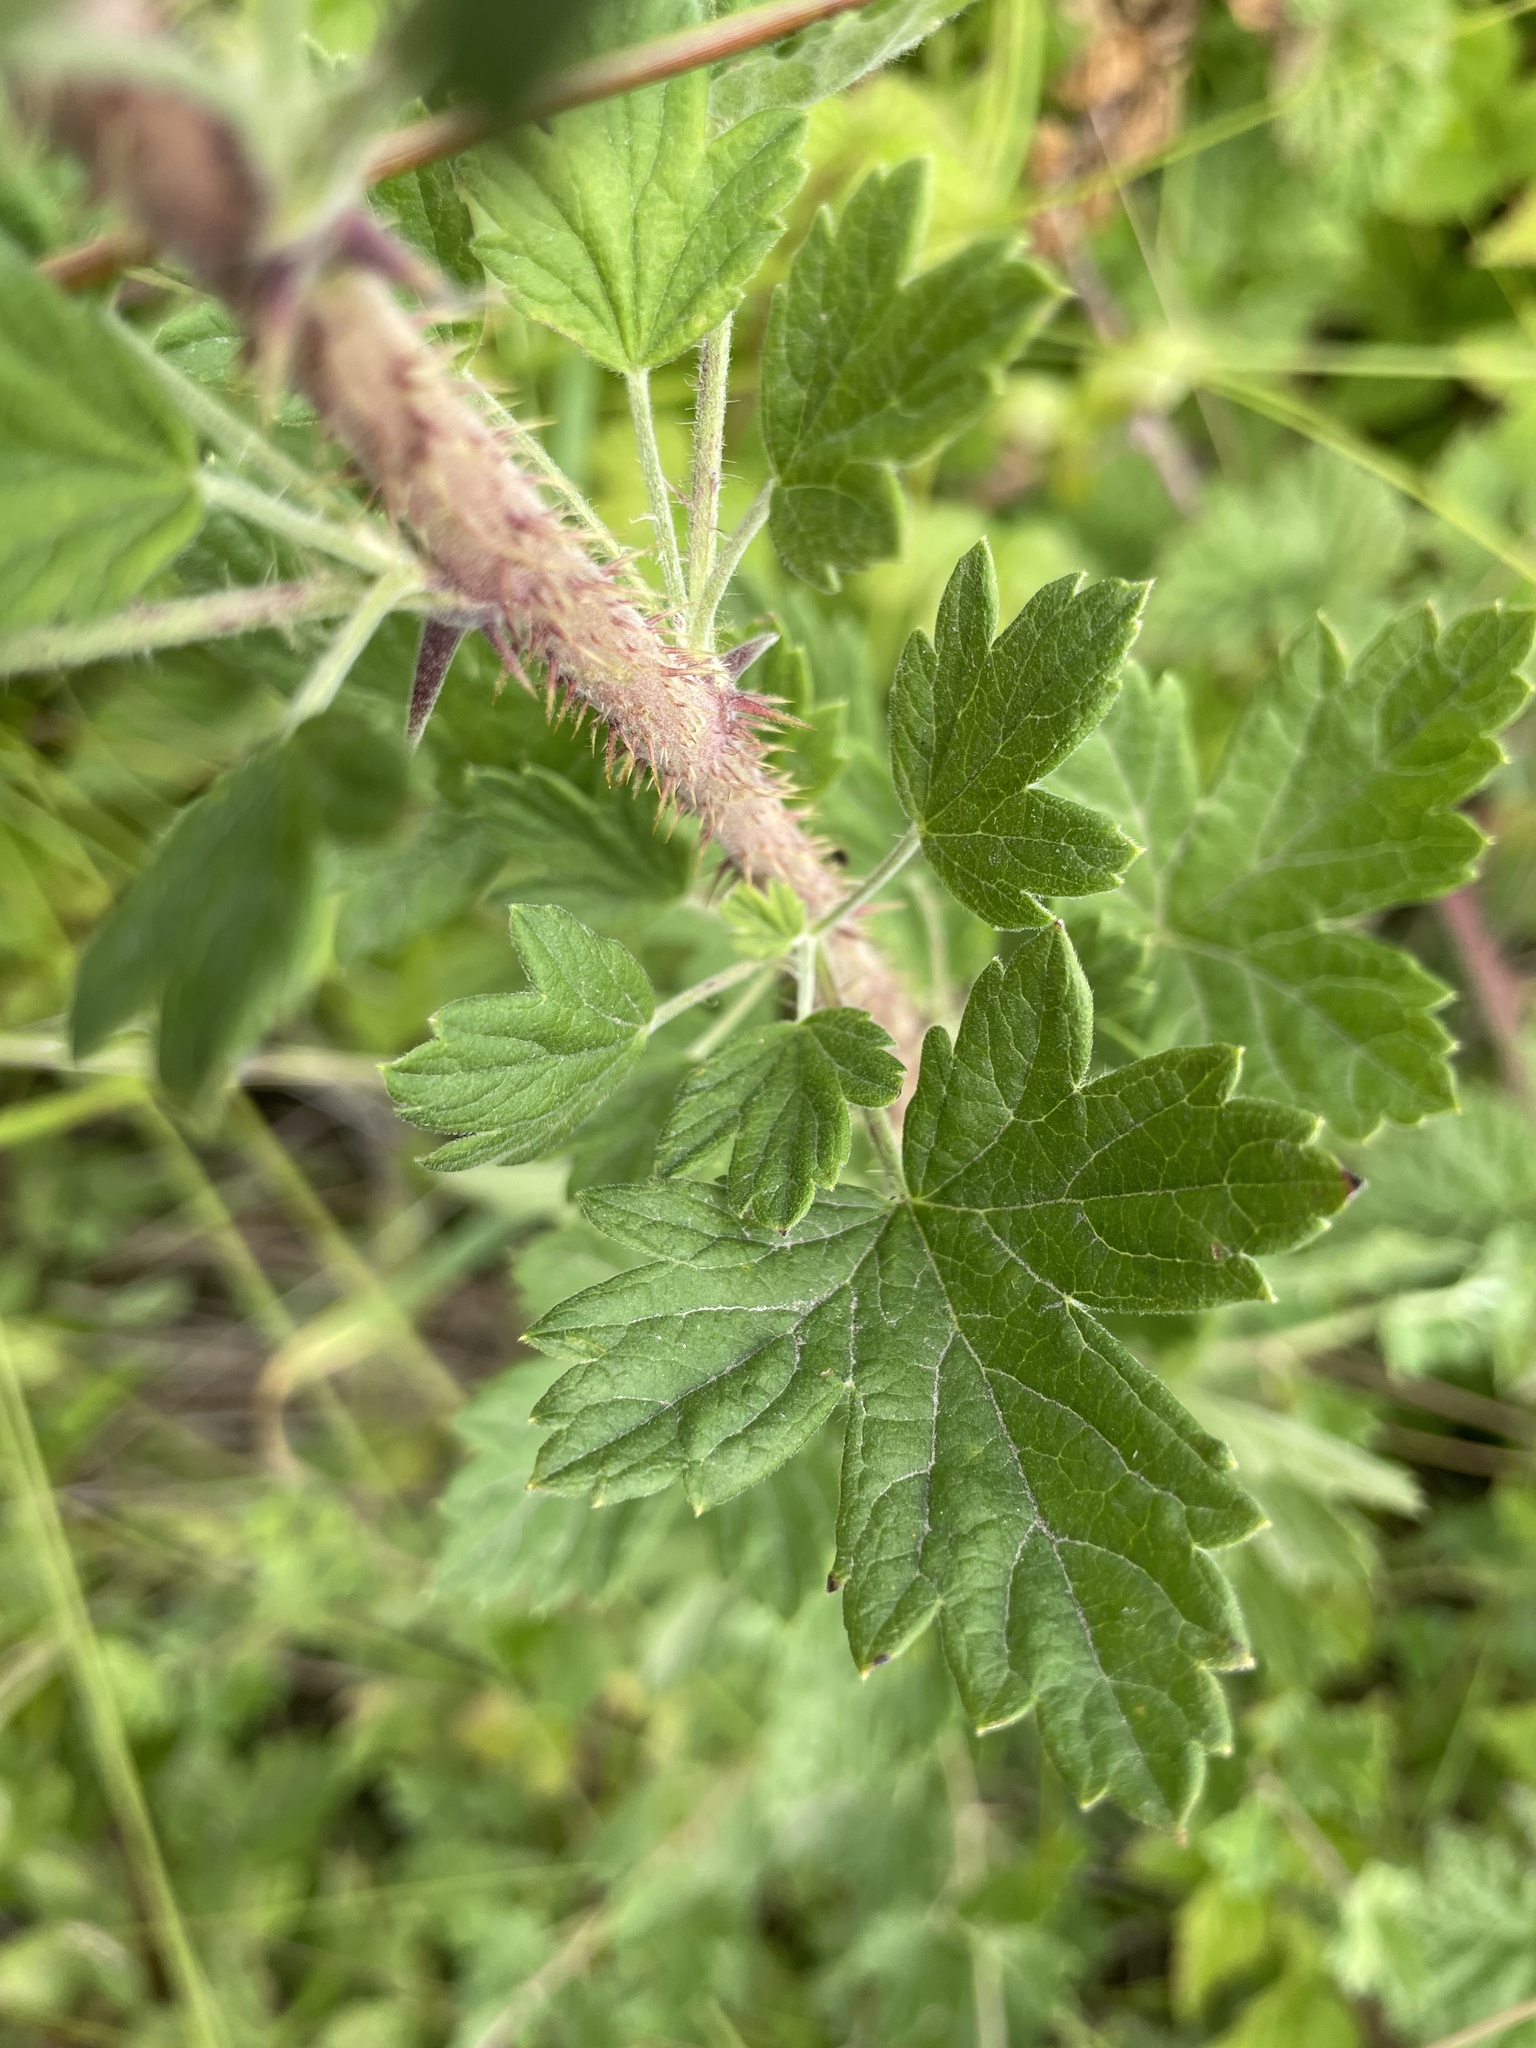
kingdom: Plantae
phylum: Tracheophyta
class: Magnoliopsida
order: Saxifragales
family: Grossulariaceae
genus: Ribes
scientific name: Ribes divaricatum
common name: Wild black gooseberry
